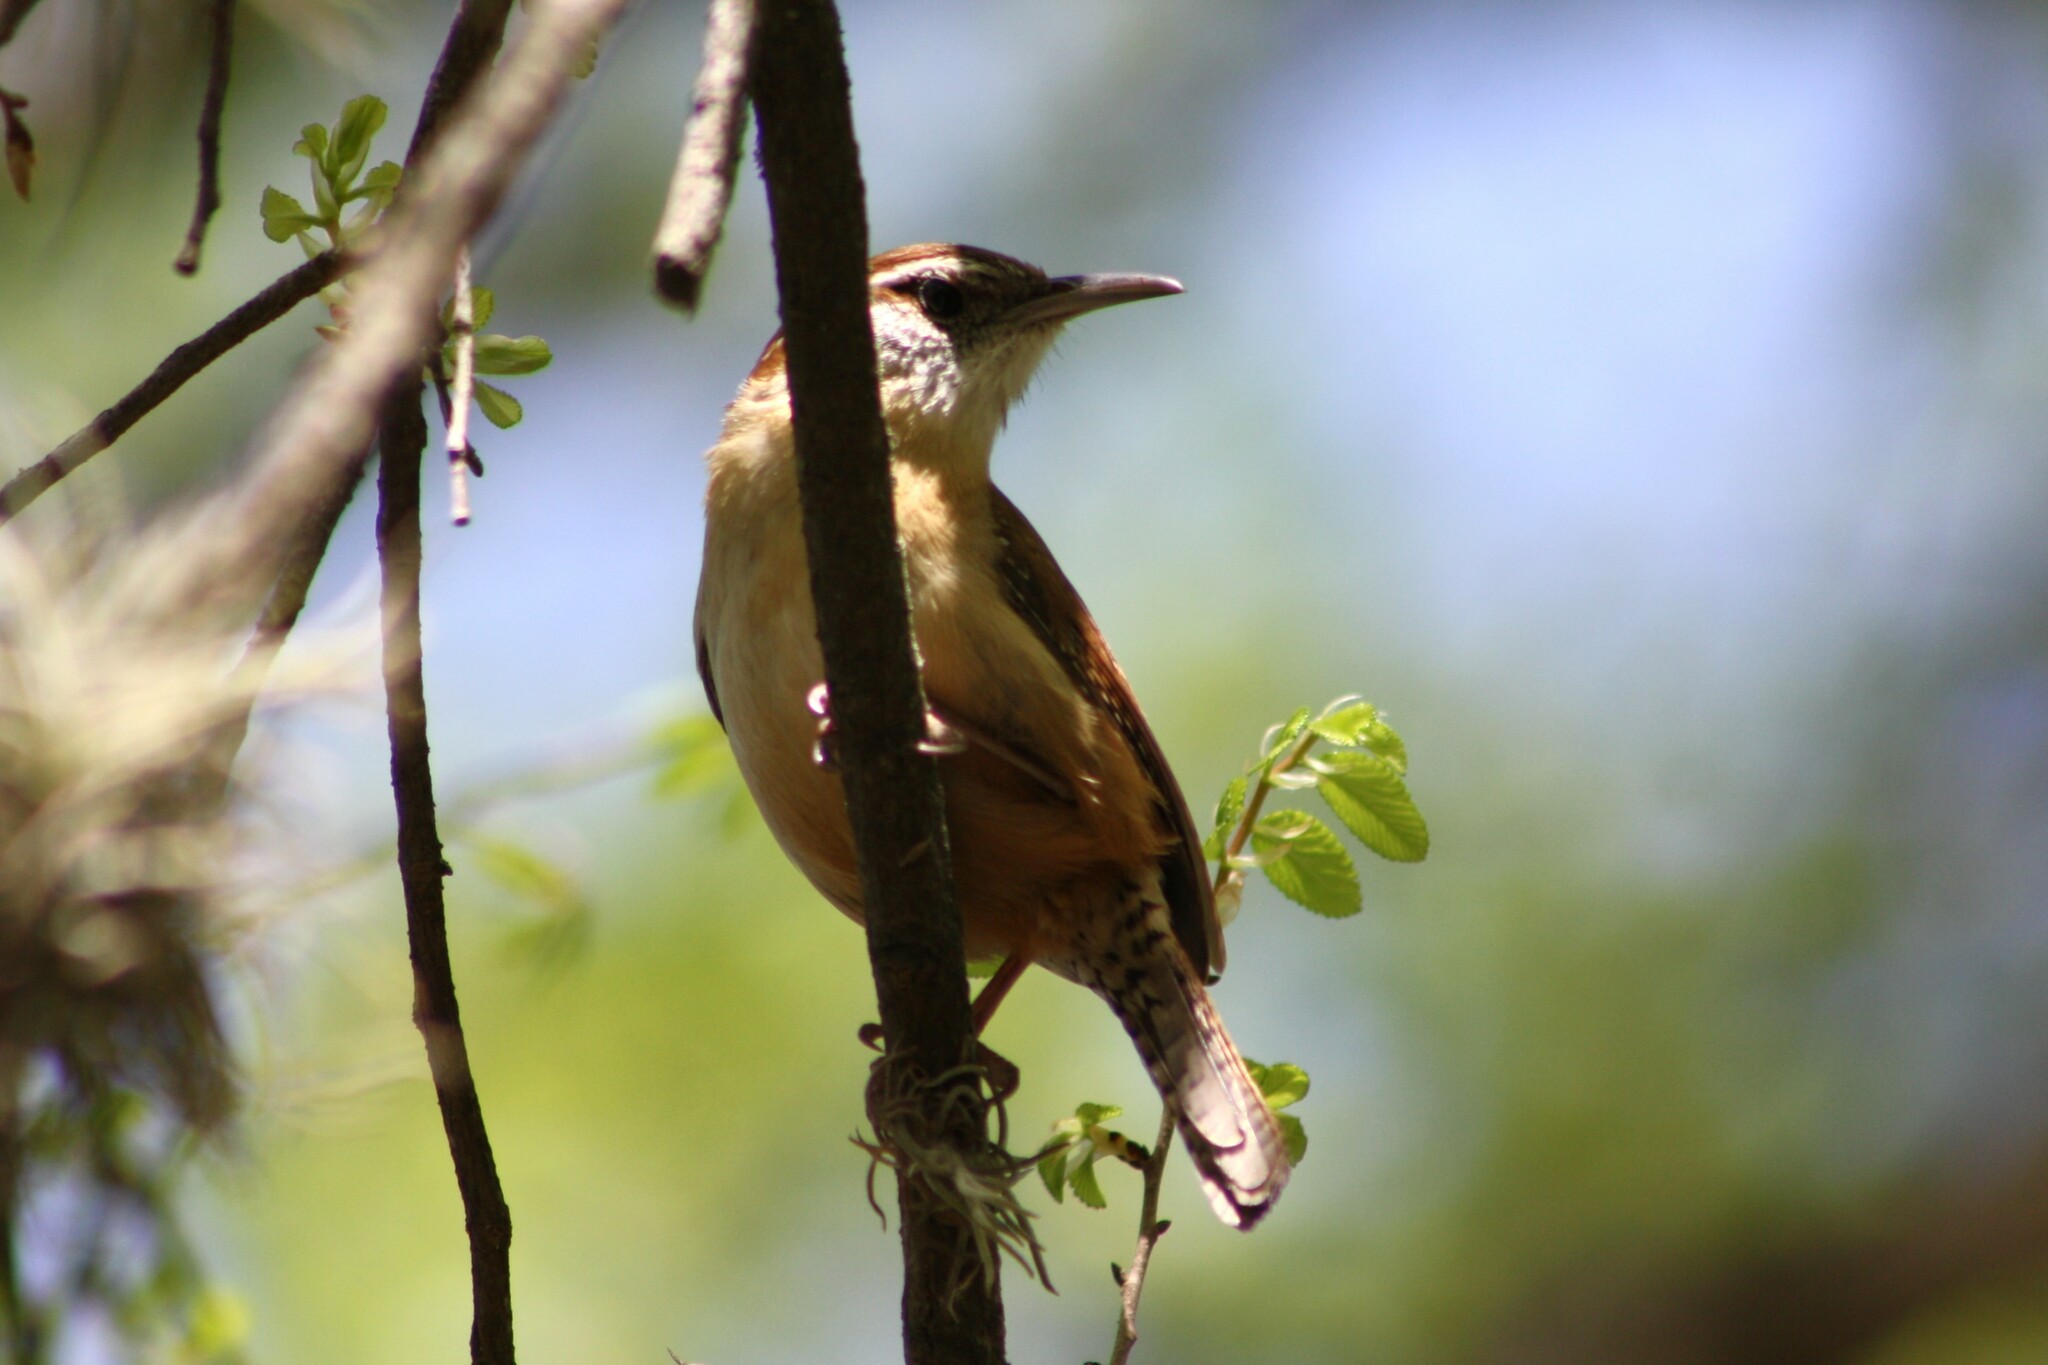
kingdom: Animalia
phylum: Chordata
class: Aves
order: Passeriformes
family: Troglodytidae
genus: Thryothorus
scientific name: Thryothorus ludovicianus
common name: Carolina wren
